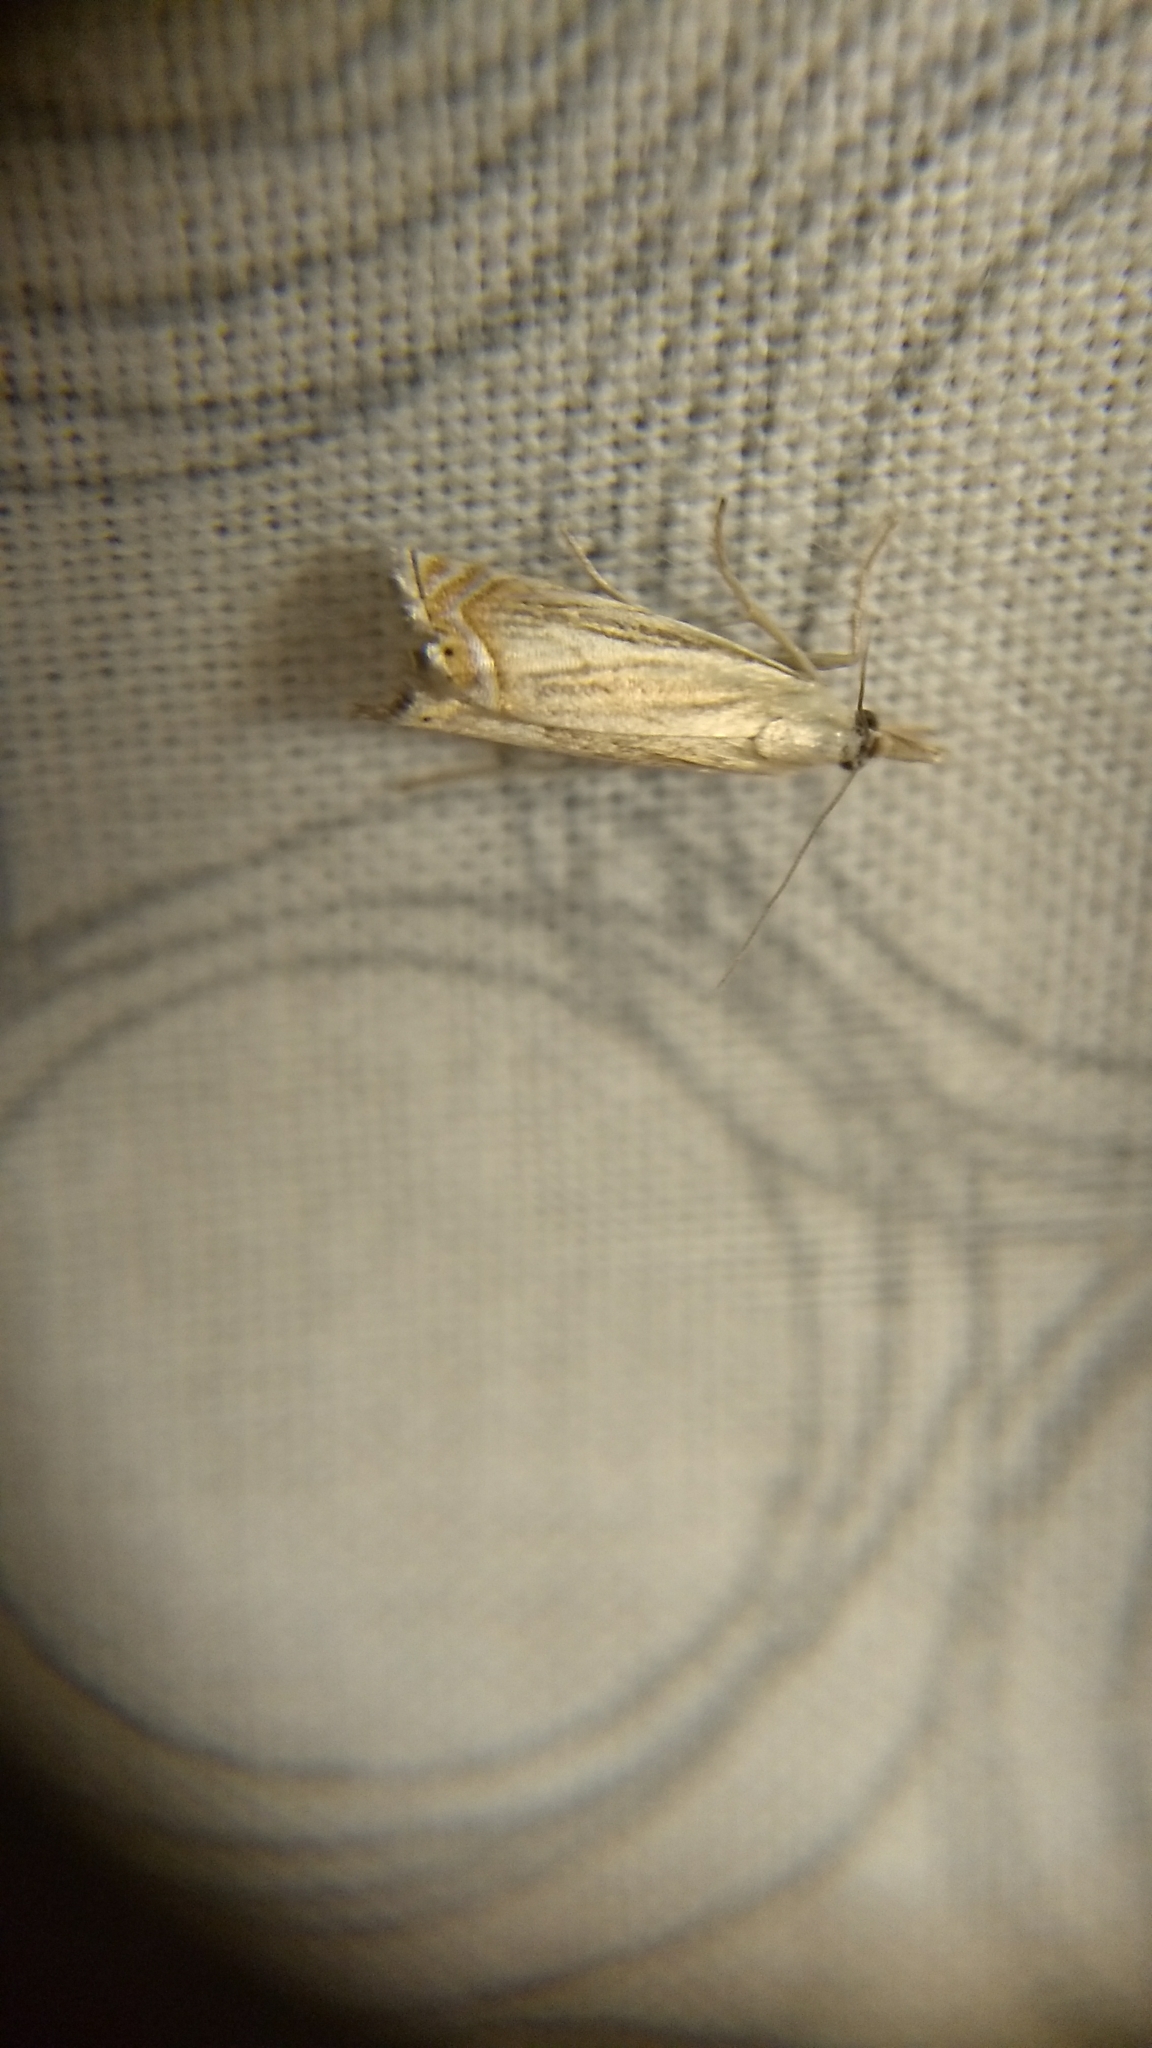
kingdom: Animalia
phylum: Arthropoda
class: Insecta
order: Lepidoptera
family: Crambidae
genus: Chrysoteuchia
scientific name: Chrysoteuchia topiarius
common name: Topiary grass-veneer
